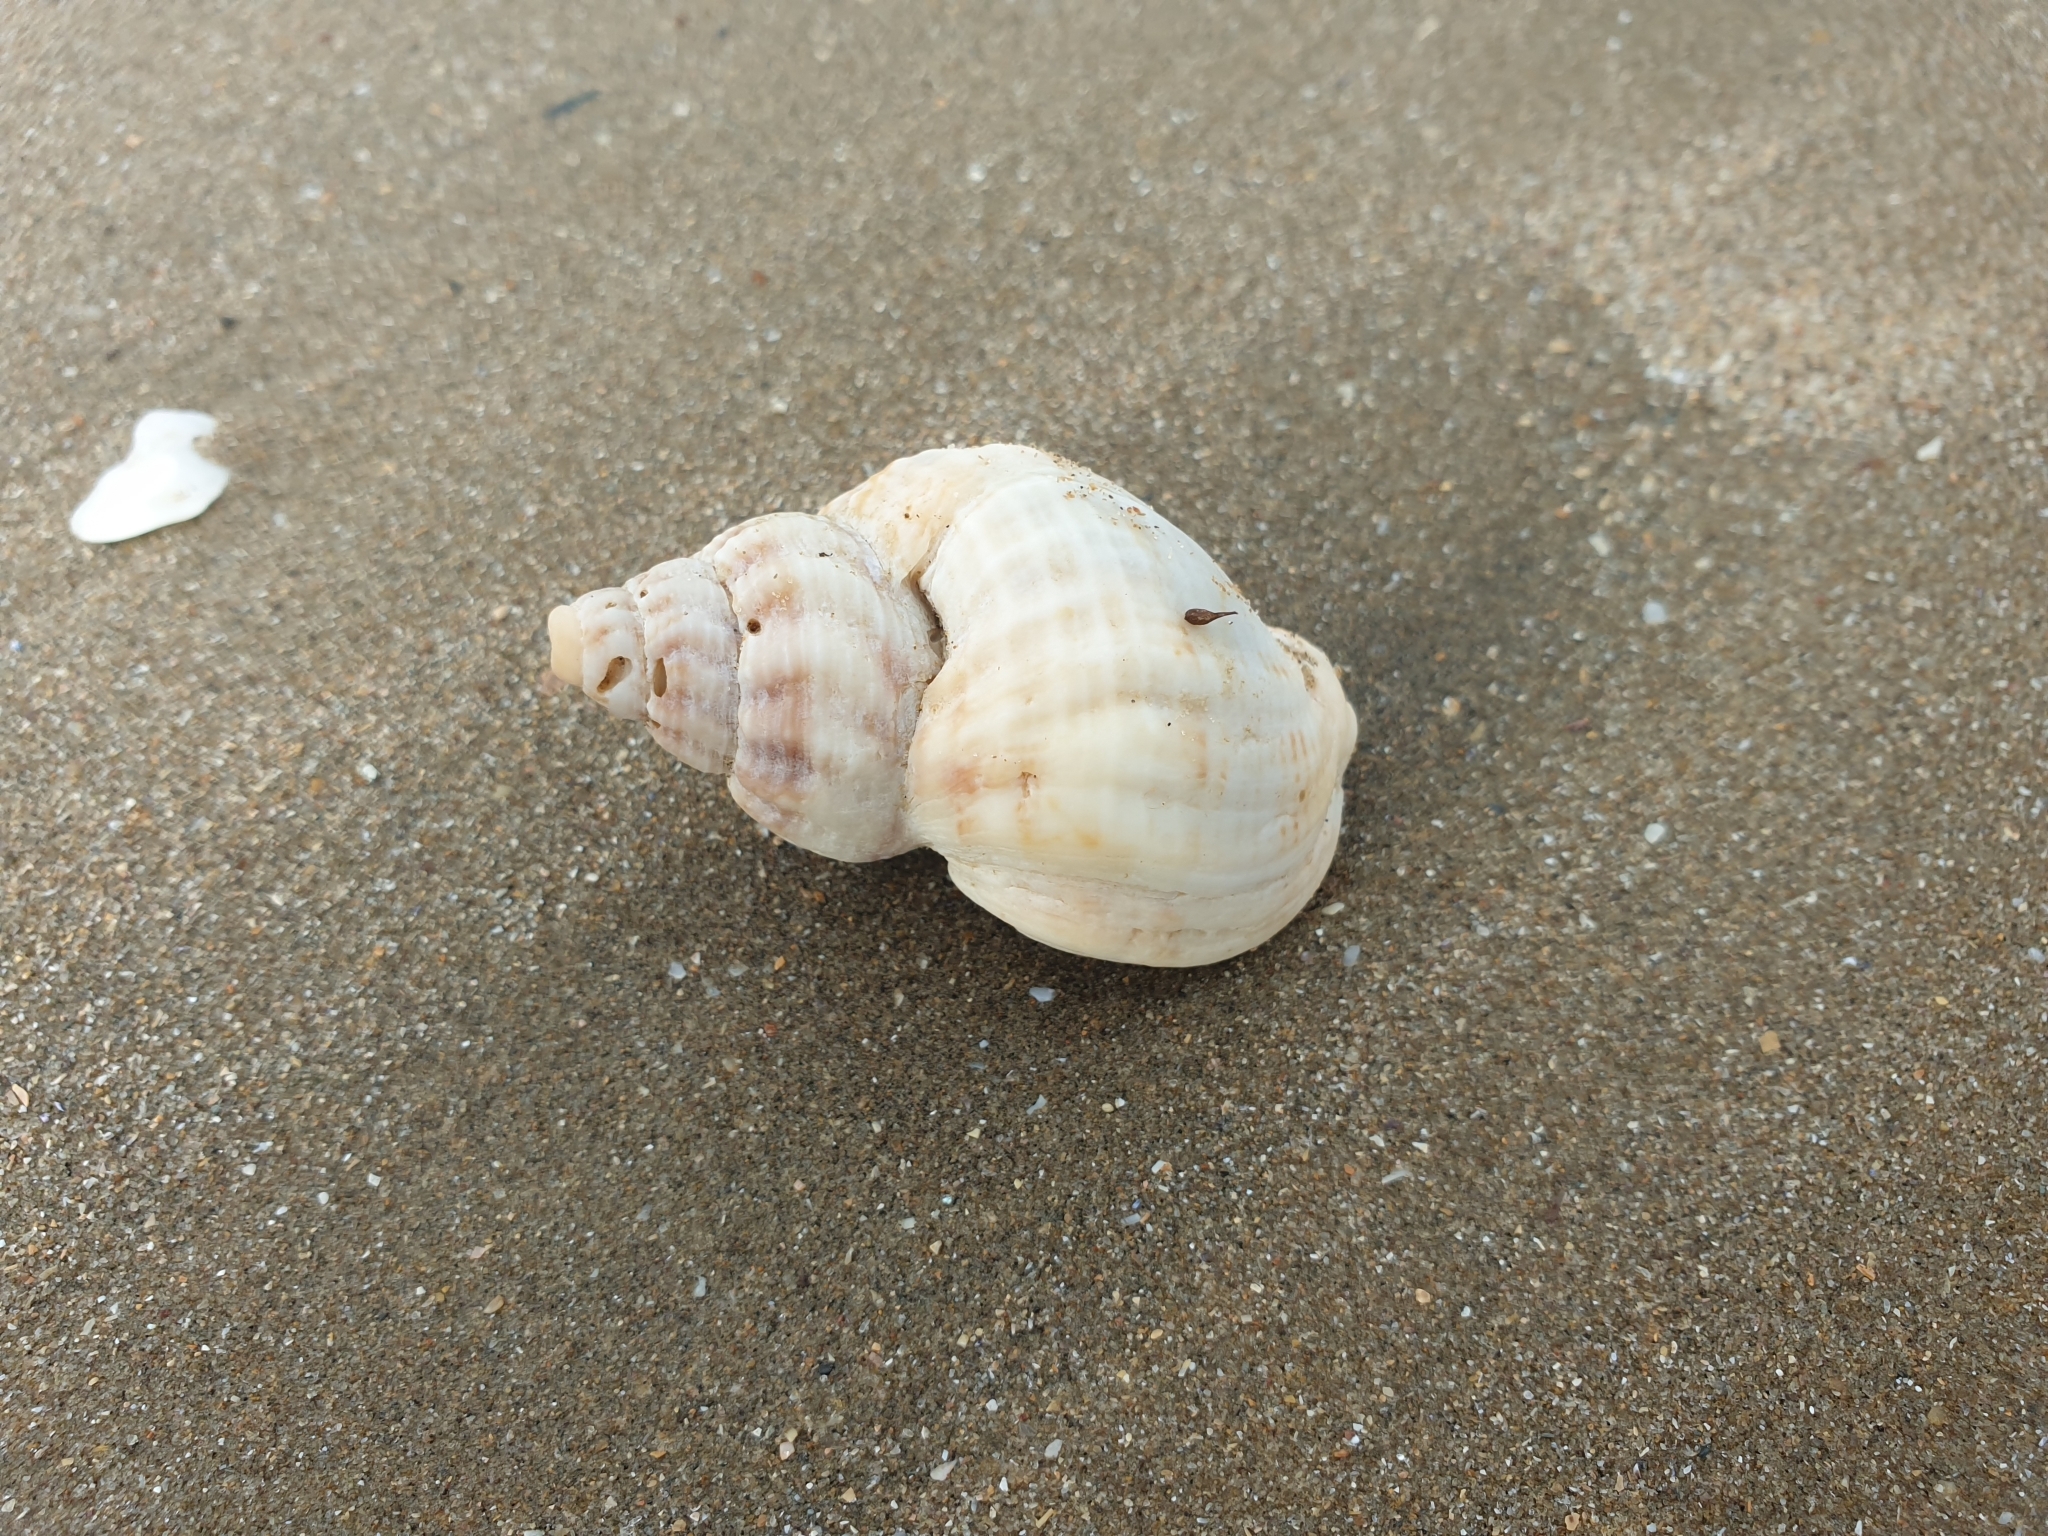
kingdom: Animalia
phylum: Mollusca
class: Gastropoda
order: Neogastropoda
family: Buccinidae
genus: Buccinum
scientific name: Buccinum undatum
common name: Common whelk
